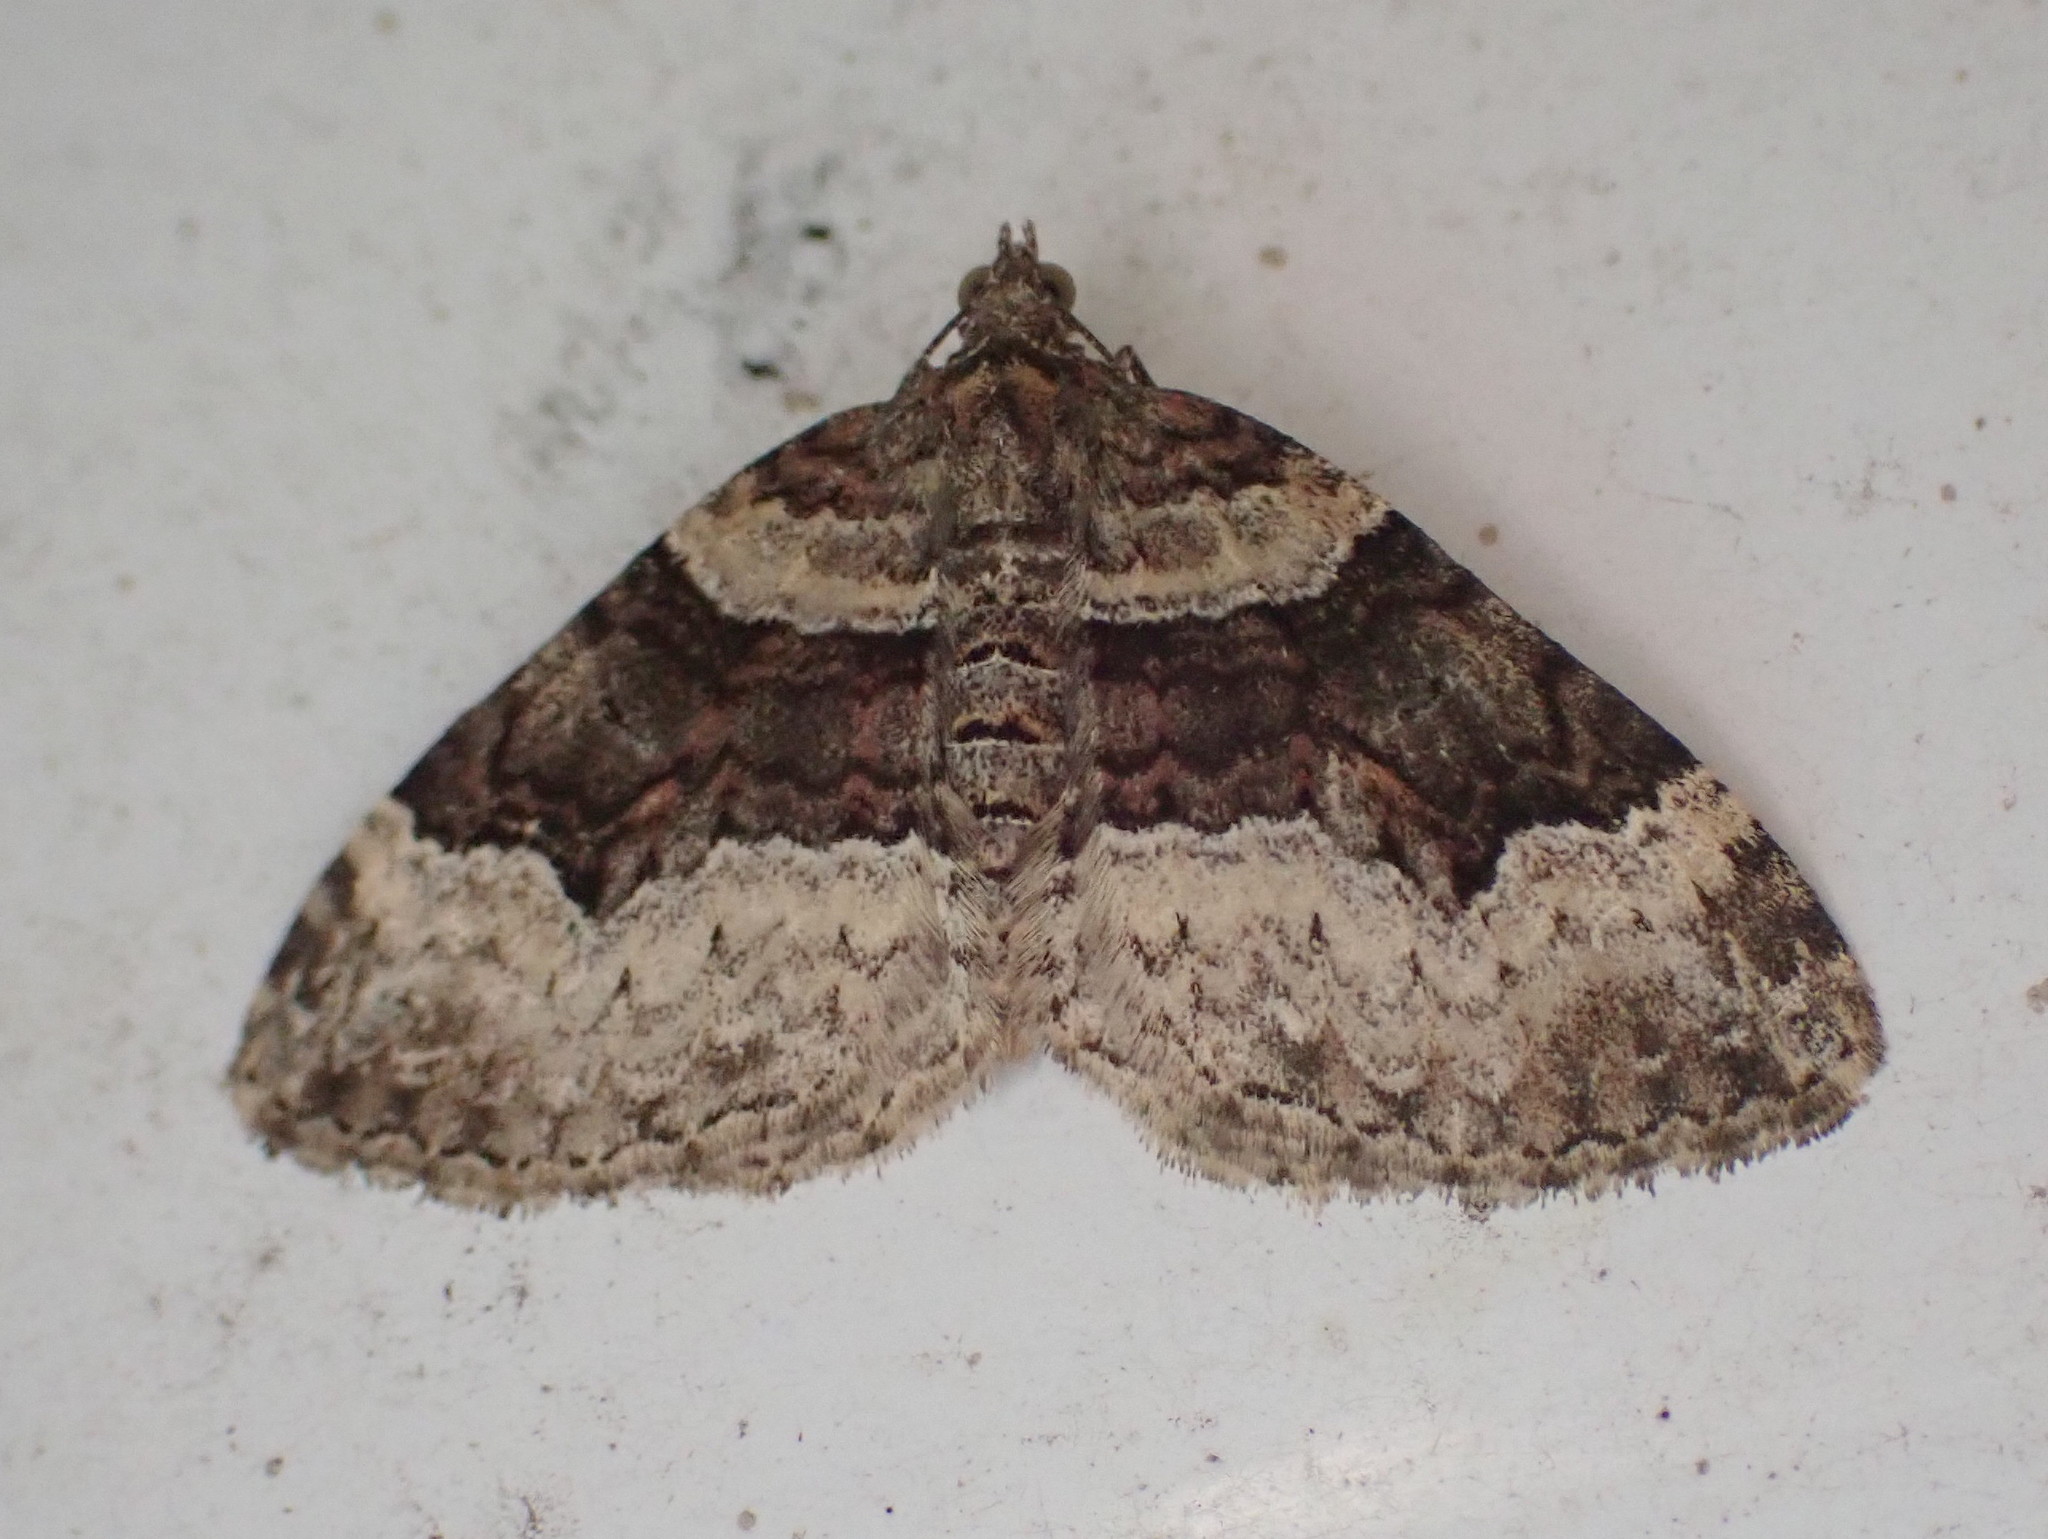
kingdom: Animalia
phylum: Arthropoda
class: Insecta
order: Lepidoptera
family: Geometridae
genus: Xanthorhoe
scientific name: Xanthorhoe lacustrata
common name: Toothed brown carpet
